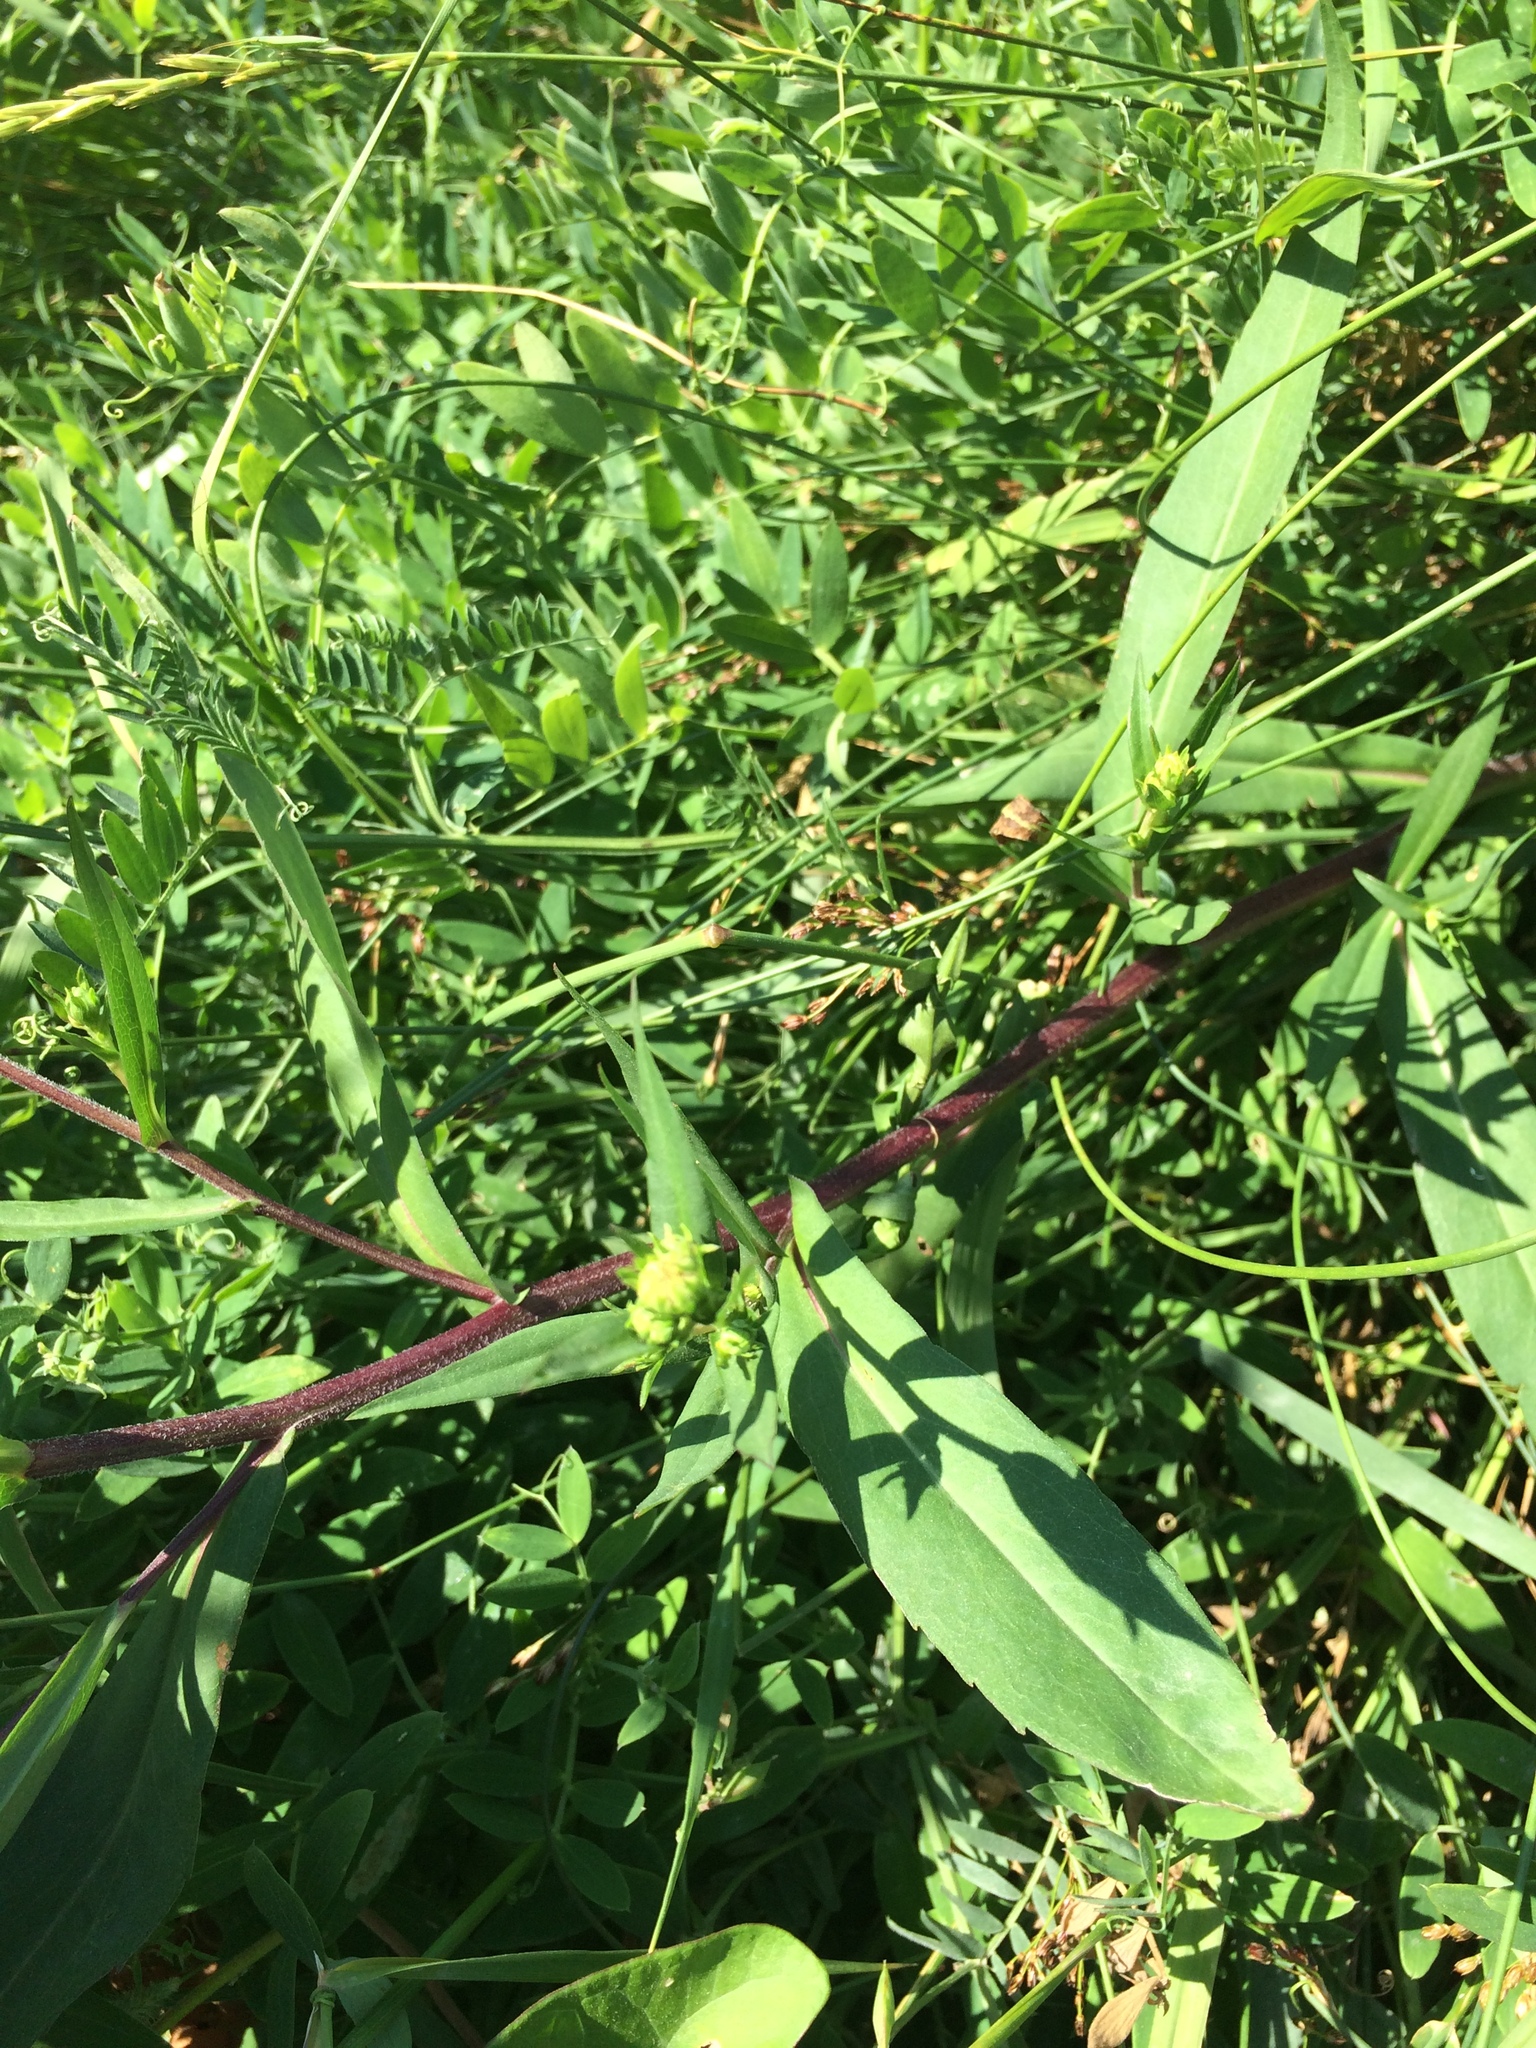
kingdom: Plantae
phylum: Tracheophyta
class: Magnoliopsida
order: Asterales
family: Asteraceae
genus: Symphyotrichum
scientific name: Symphyotrichum novi-belgii
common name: Michaelmas daisy
